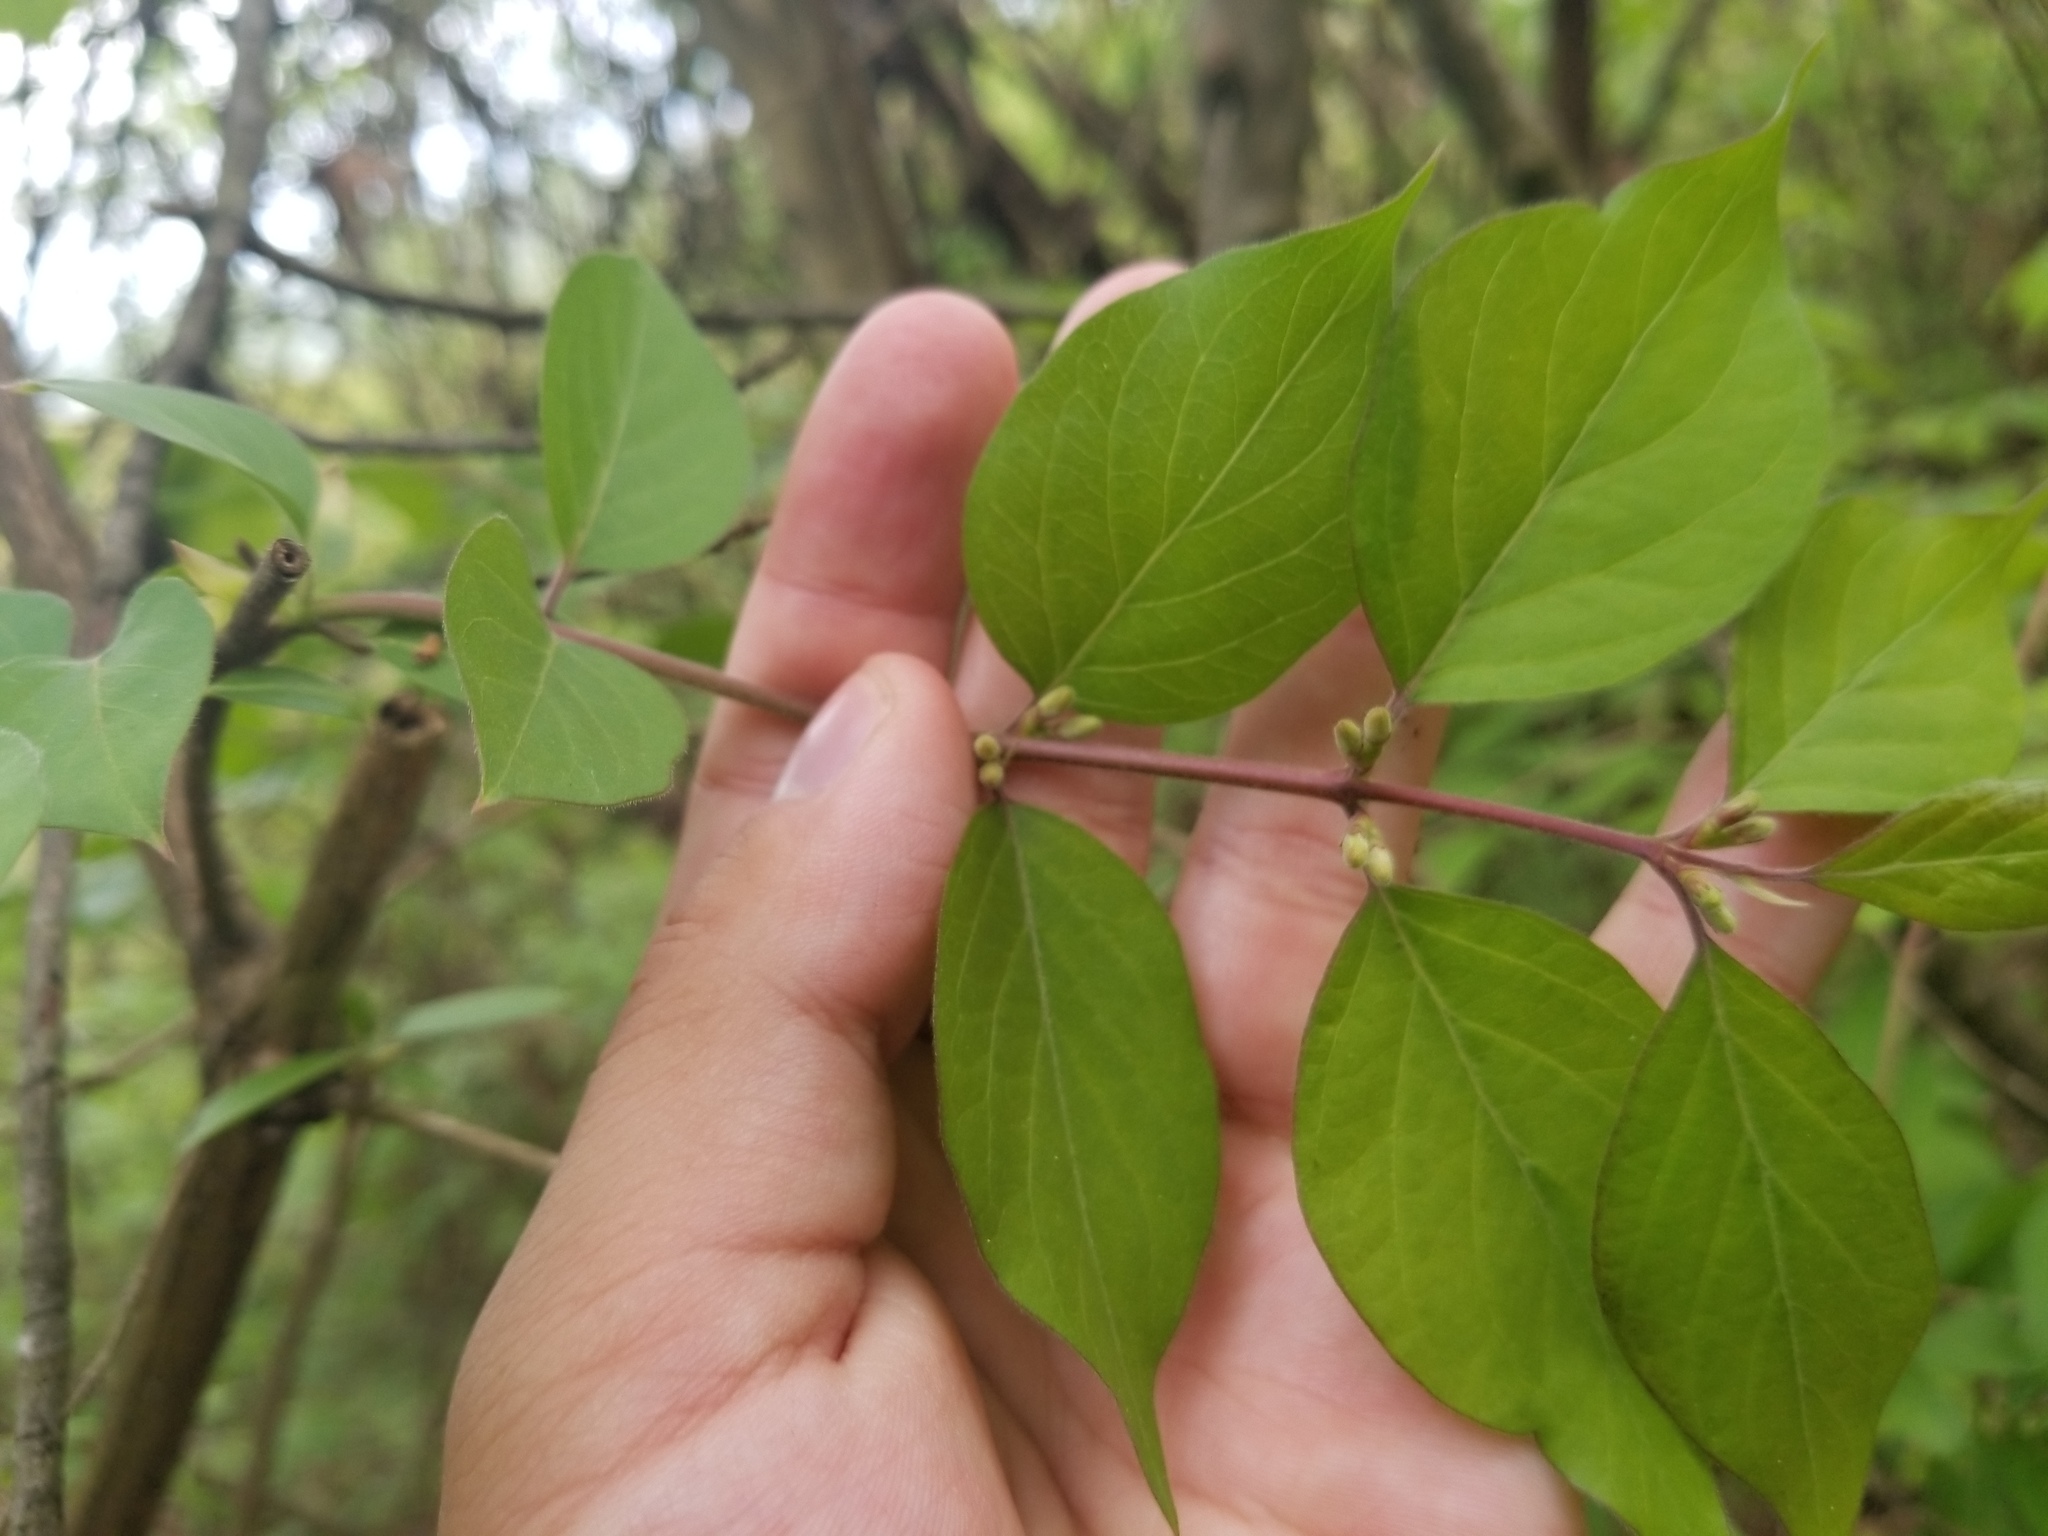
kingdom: Plantae
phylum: Tracheophyta
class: Magnoliopsida
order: Dipsacales
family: Caprifoliaceae
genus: Lonicera
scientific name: Lonicera maackii
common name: Amur honeysuckle
